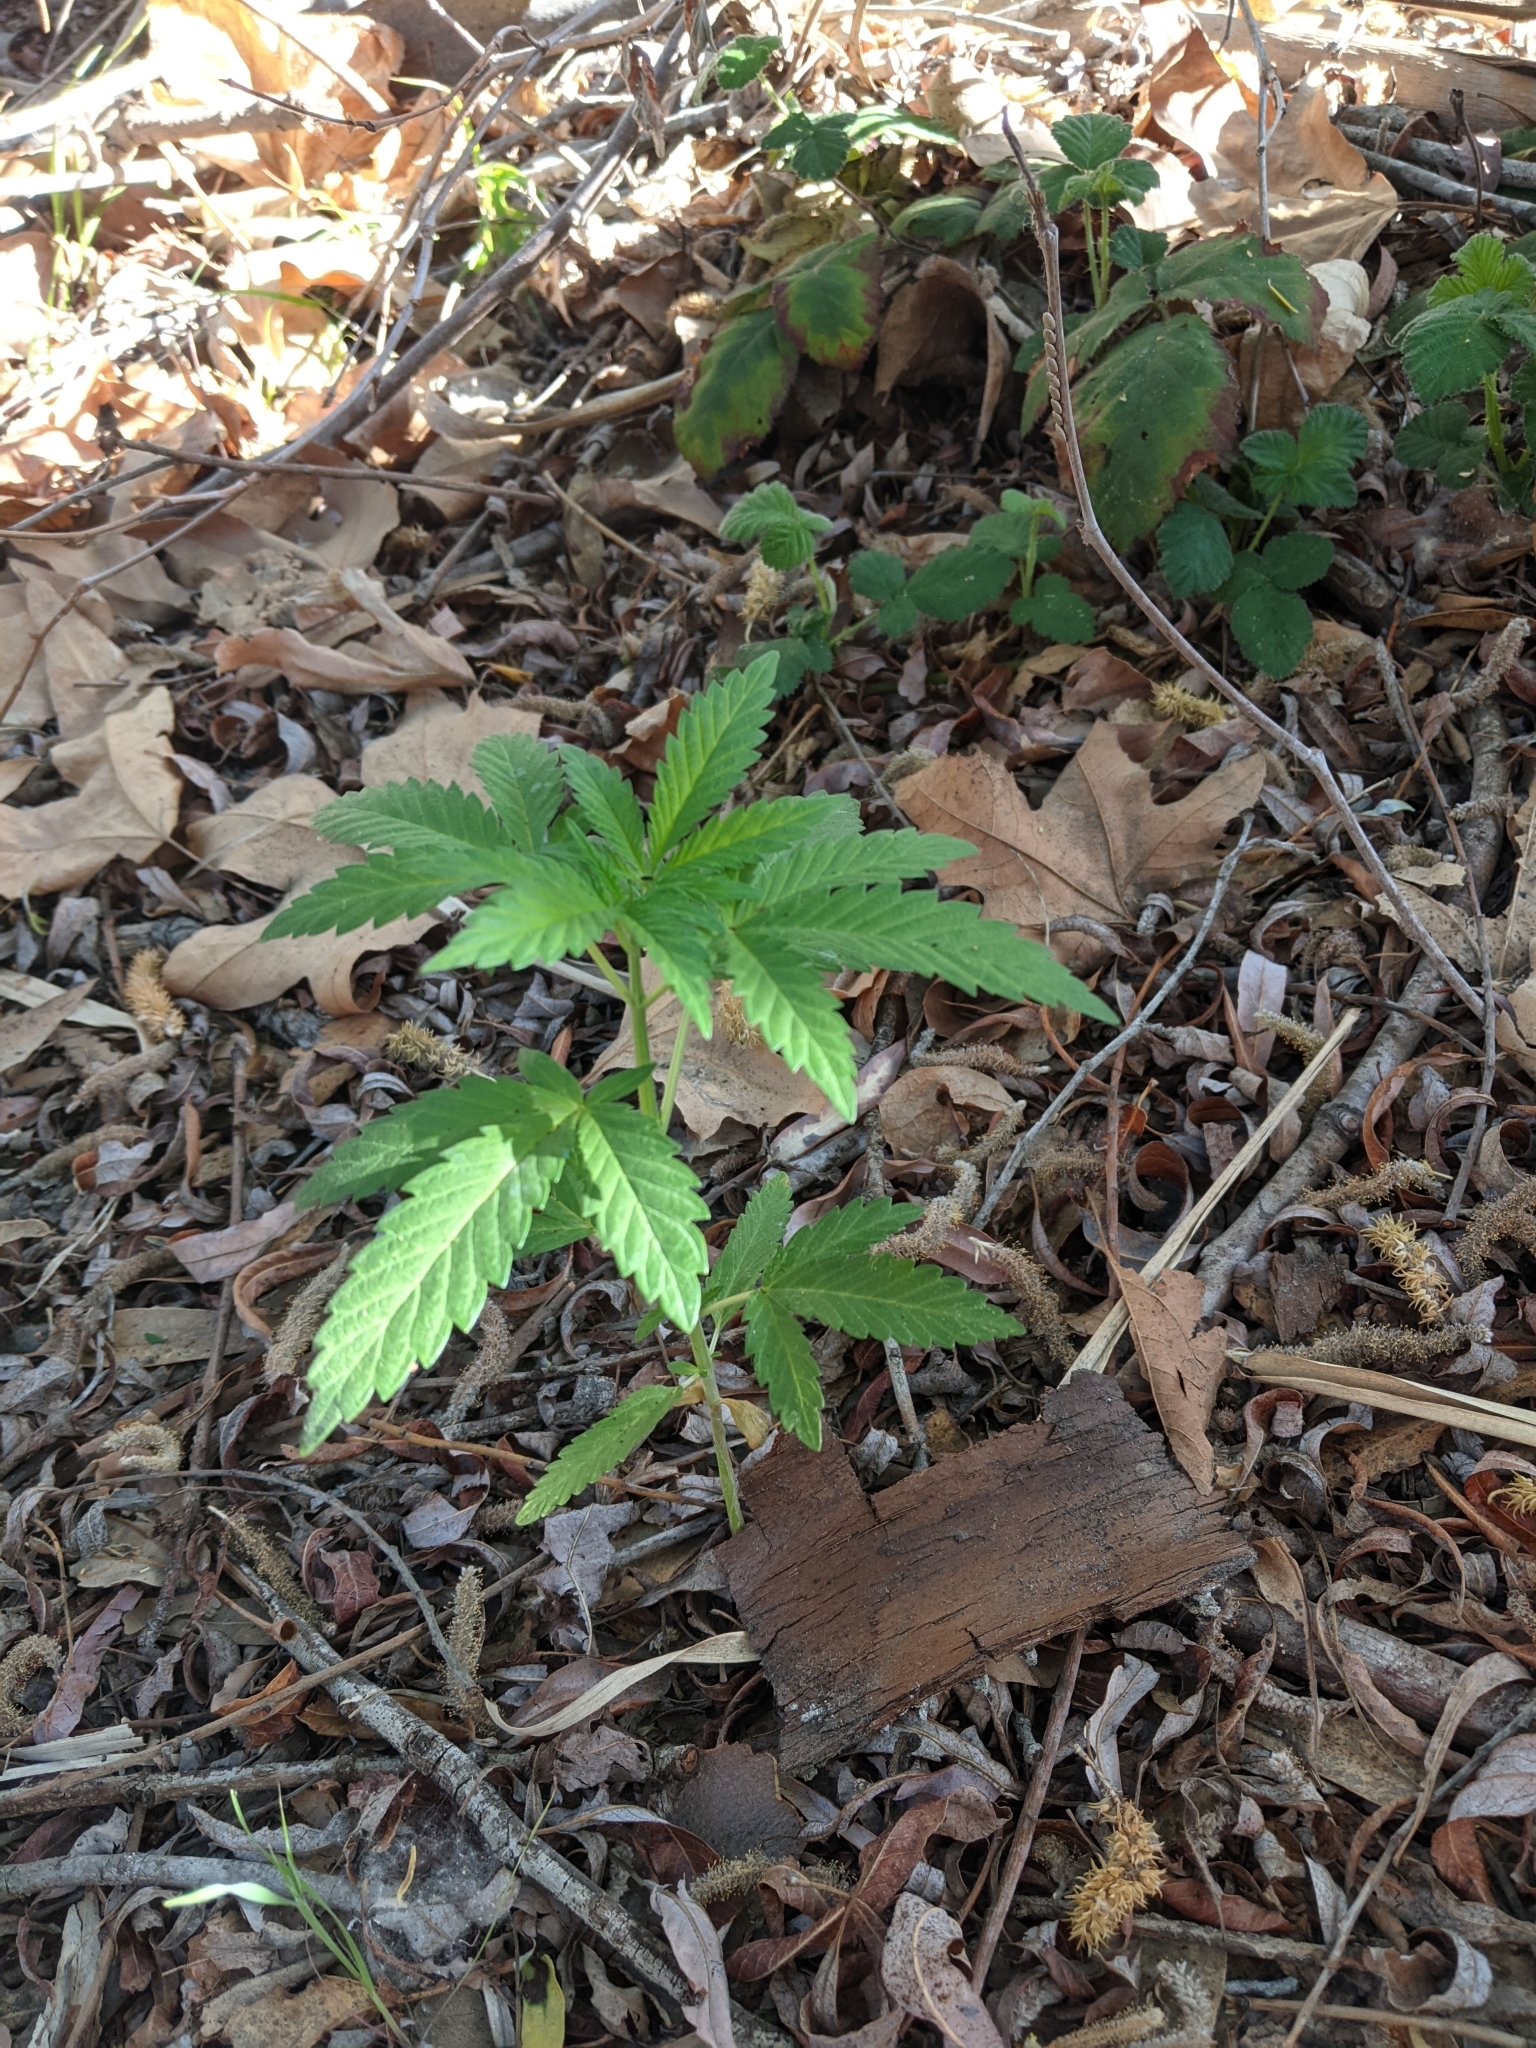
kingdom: Plantae
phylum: Tracheophyta
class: Magnoliopsida
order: Rosales
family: Cannabaceae
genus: Cannabis
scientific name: Cannabis sativa
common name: Hemp
